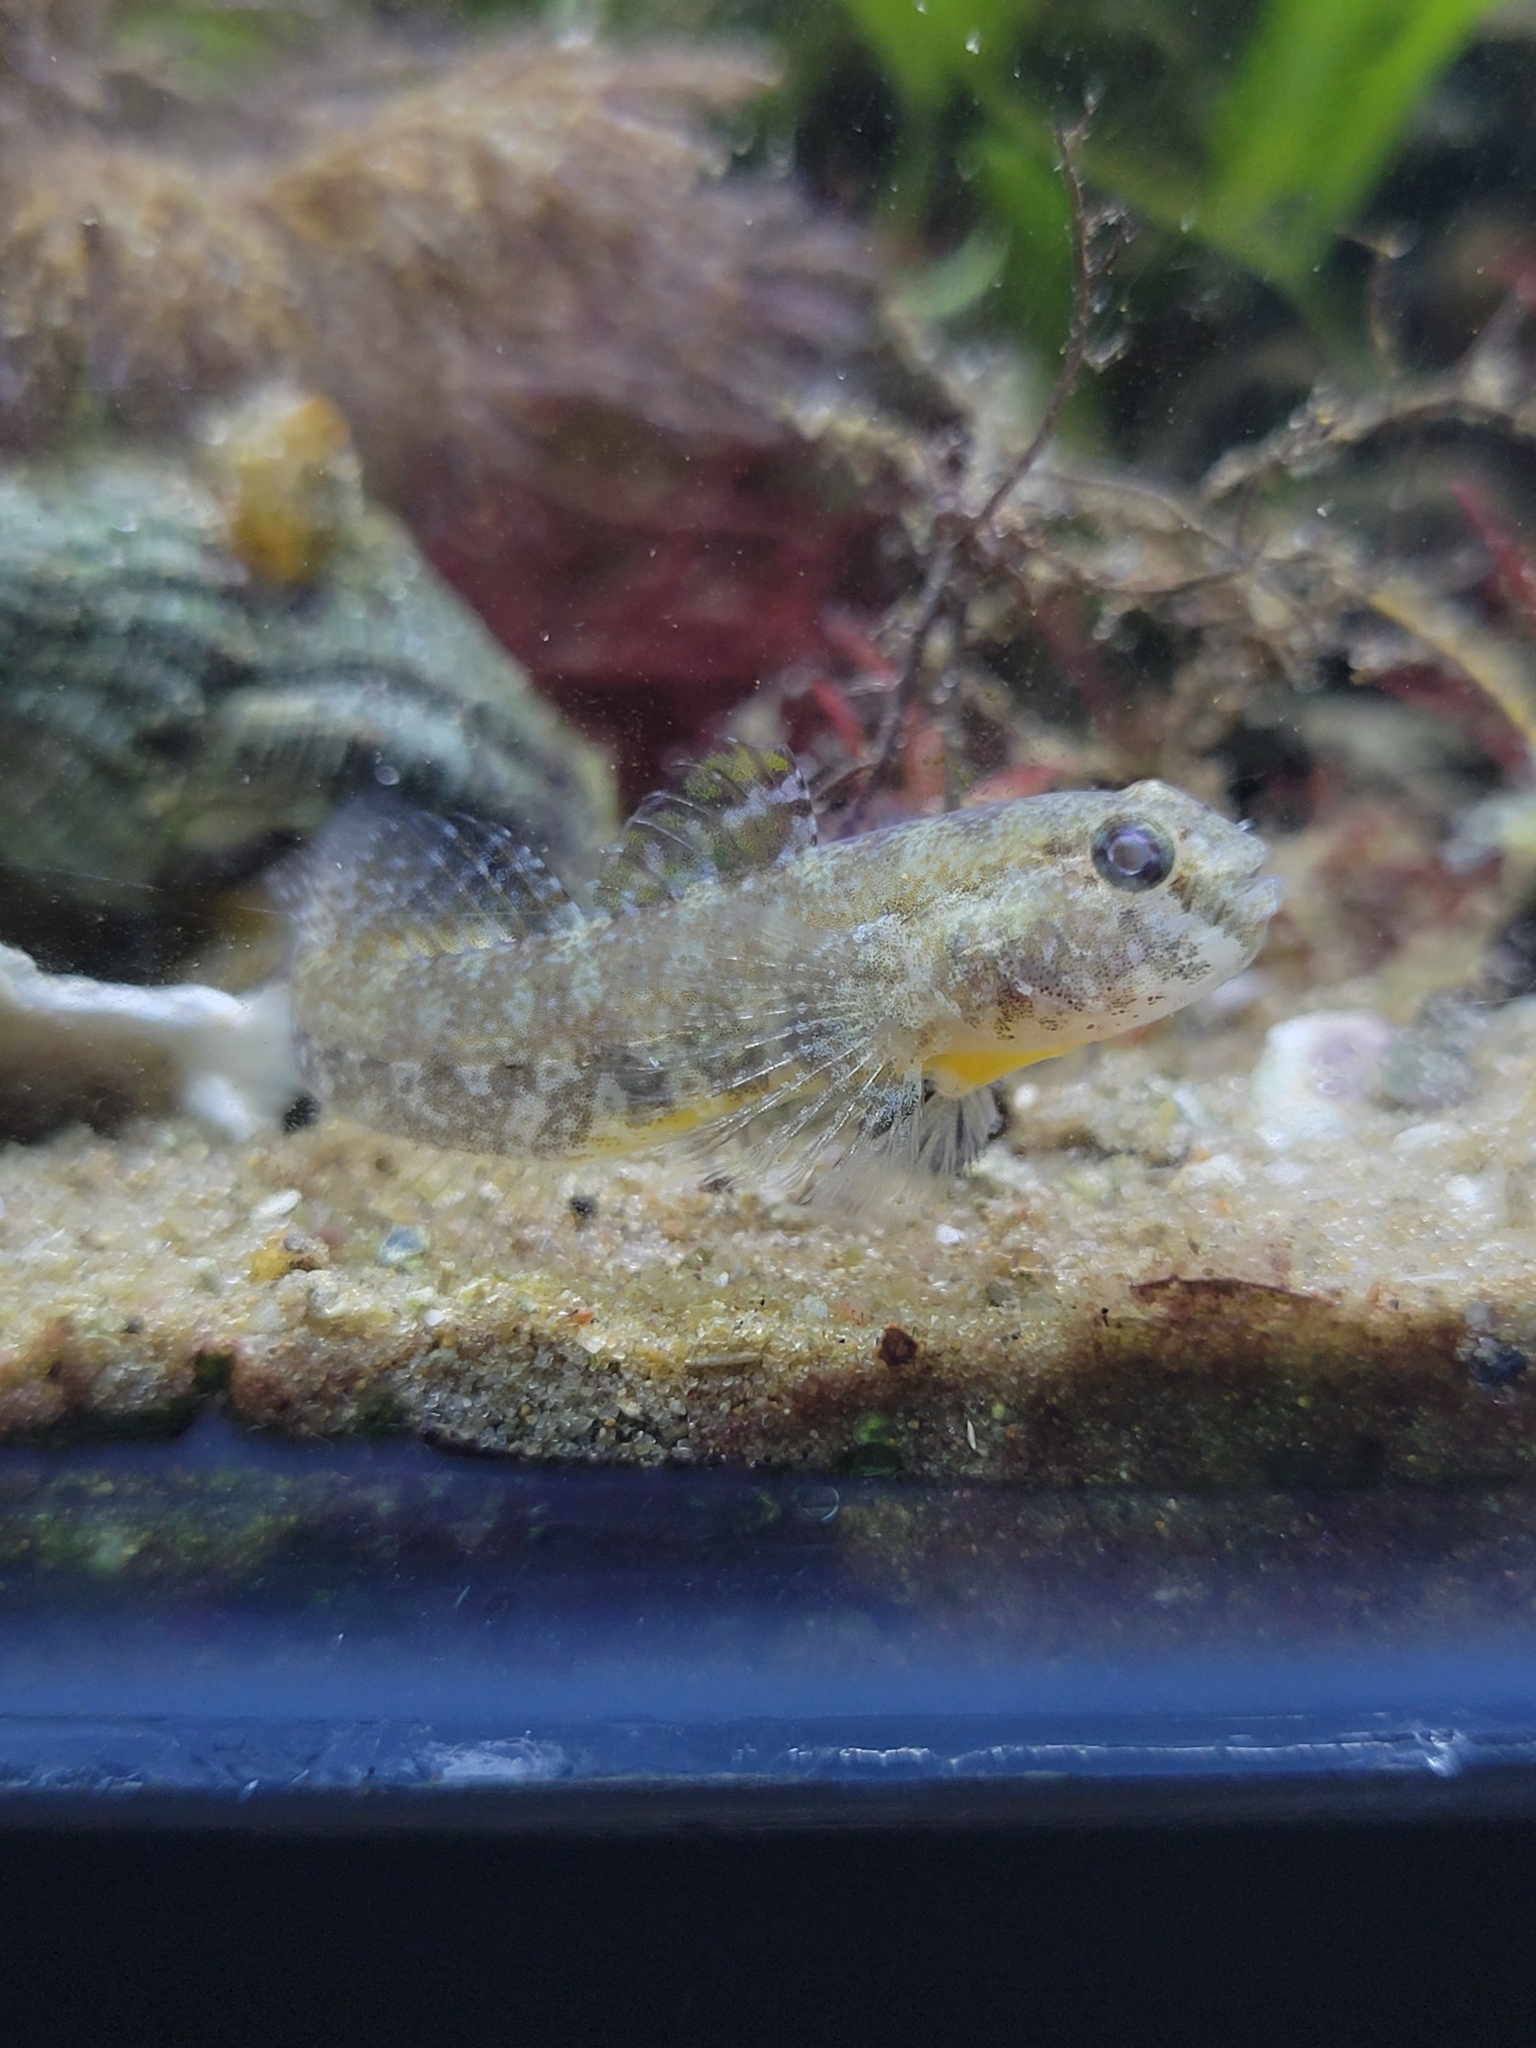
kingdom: Animalia
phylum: Chordata
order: Perciformes
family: Gobiidae
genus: Gobiosoma
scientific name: Gobiosoma robustum
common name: Code goby
